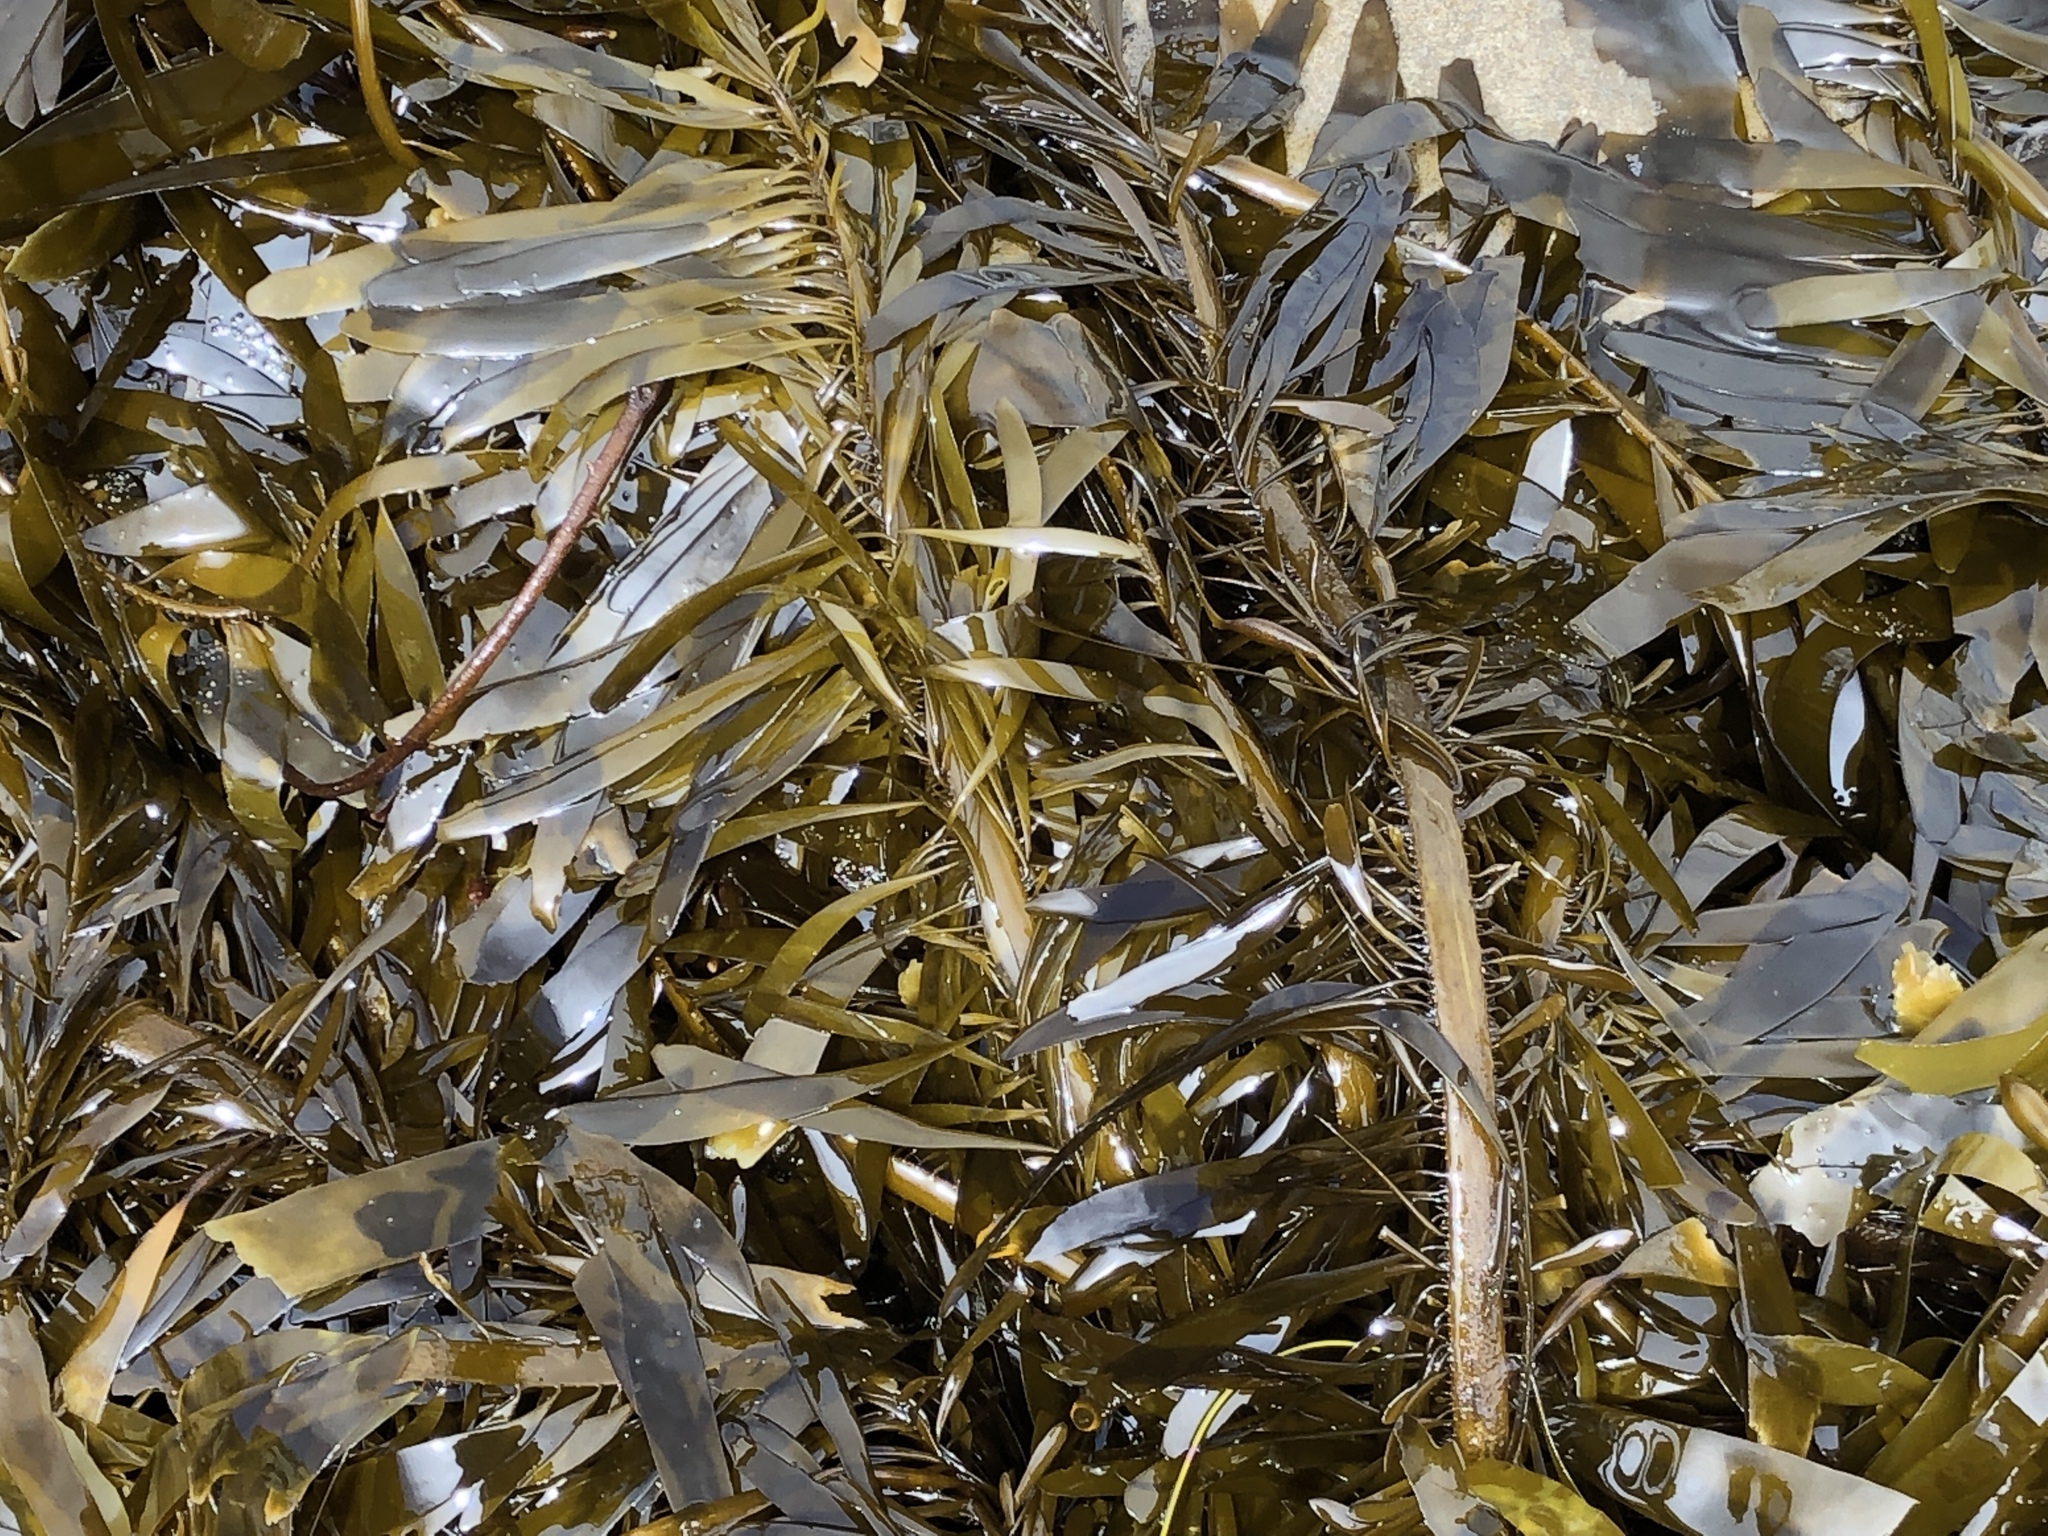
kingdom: Chromista
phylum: Ochrophyta
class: Phaeophyceae
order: Laminariales
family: Lessoniaceae
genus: Egregia
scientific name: Egregia menziesii
